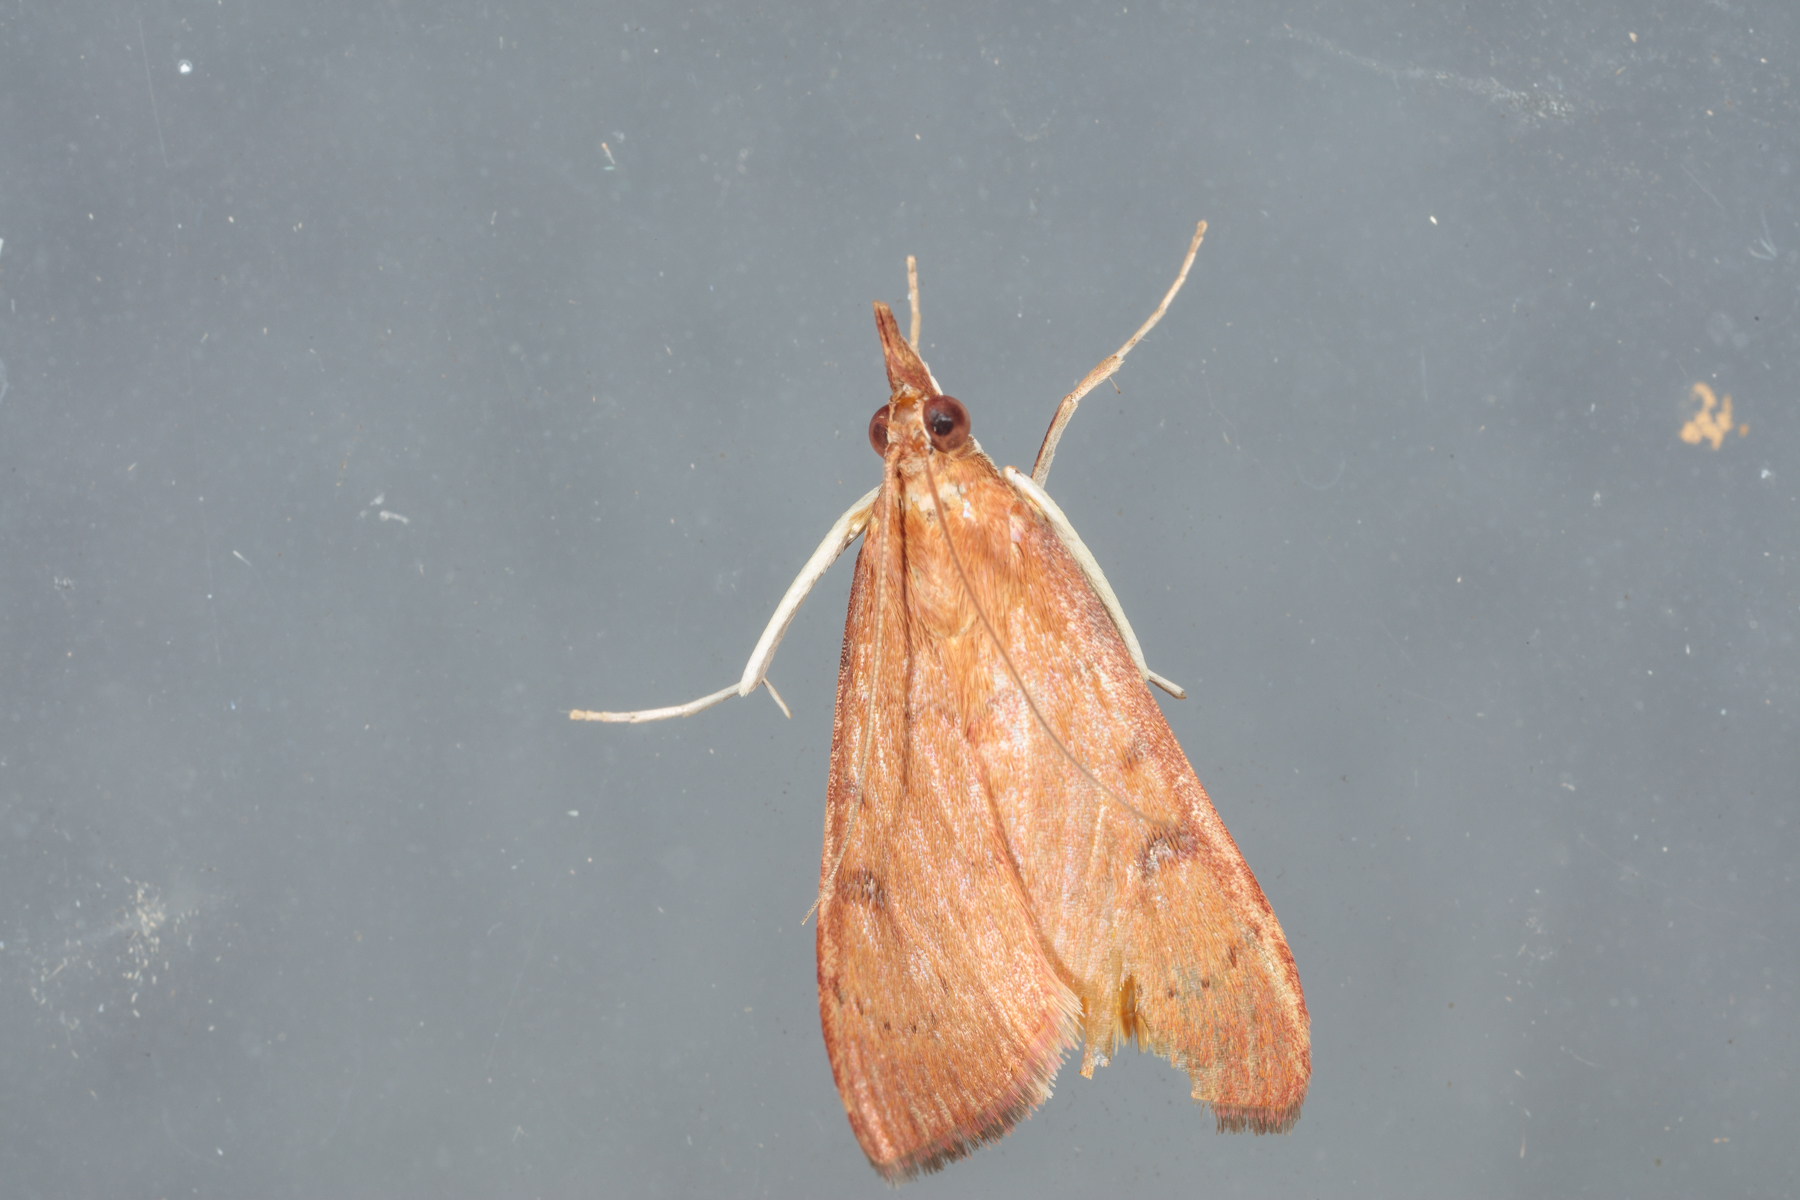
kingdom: Animalia
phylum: Arthropoda
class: Insecta
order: Lepidoptera
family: Crambidae
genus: Uresiphita
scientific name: Uresiphita reversalis
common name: Genista broom moth
